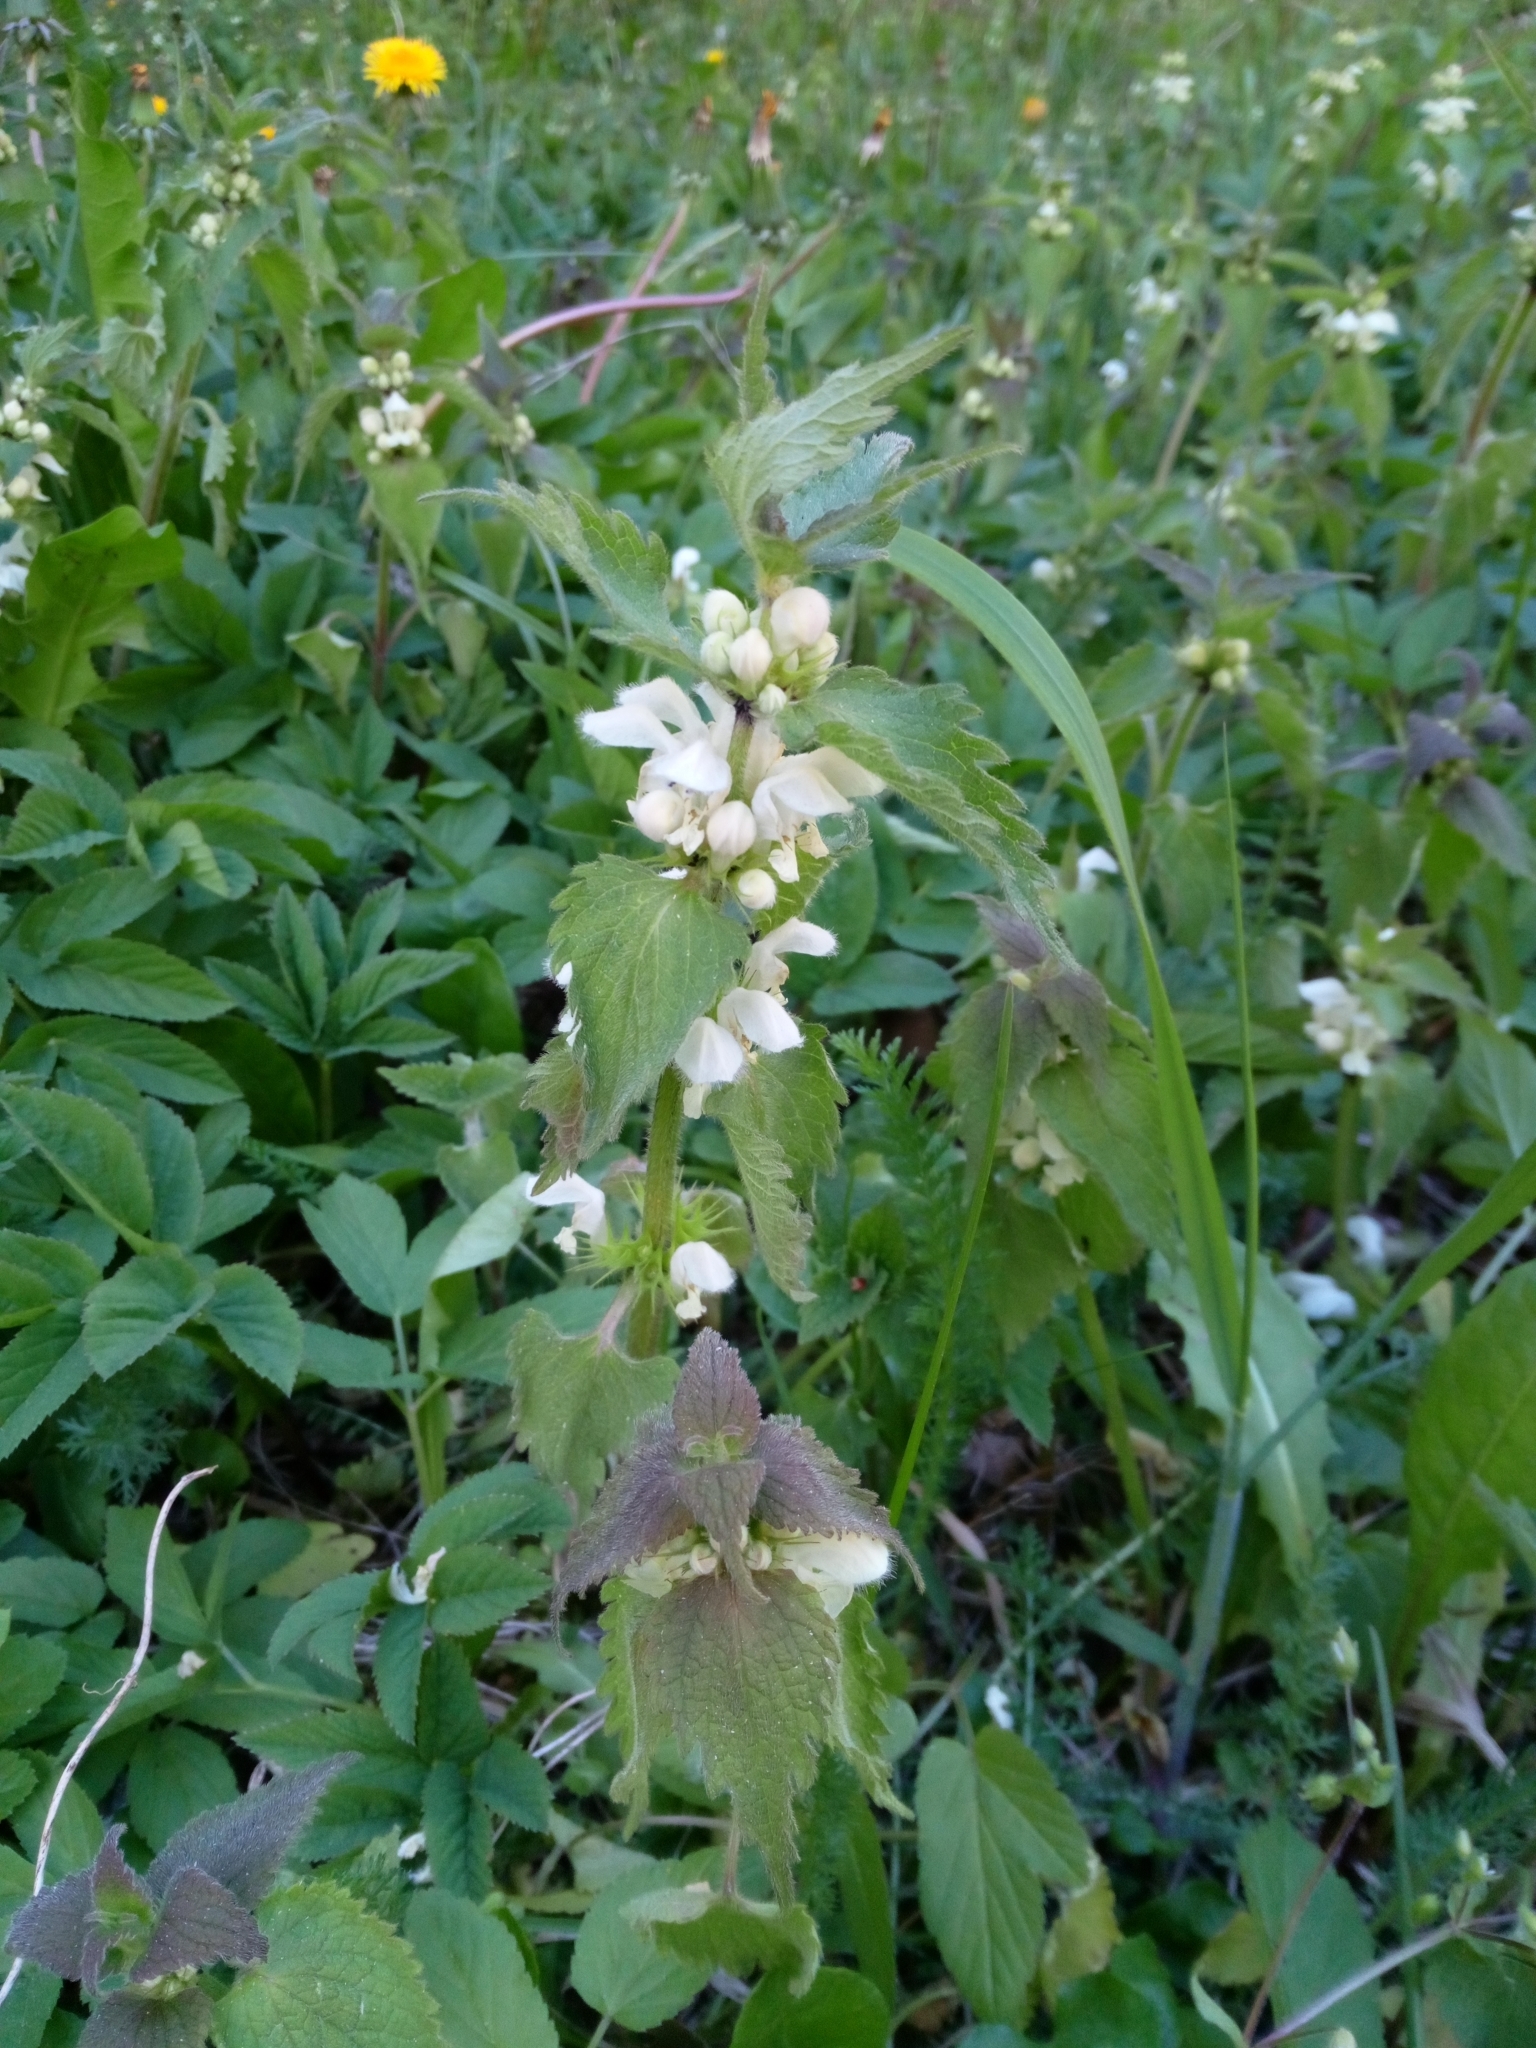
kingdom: Plantae
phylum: Tracheophyta
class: Magnoliopsida
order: Lamiales
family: Lamiaceae
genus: Lamium
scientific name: Lamium album
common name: White dead-nettle
